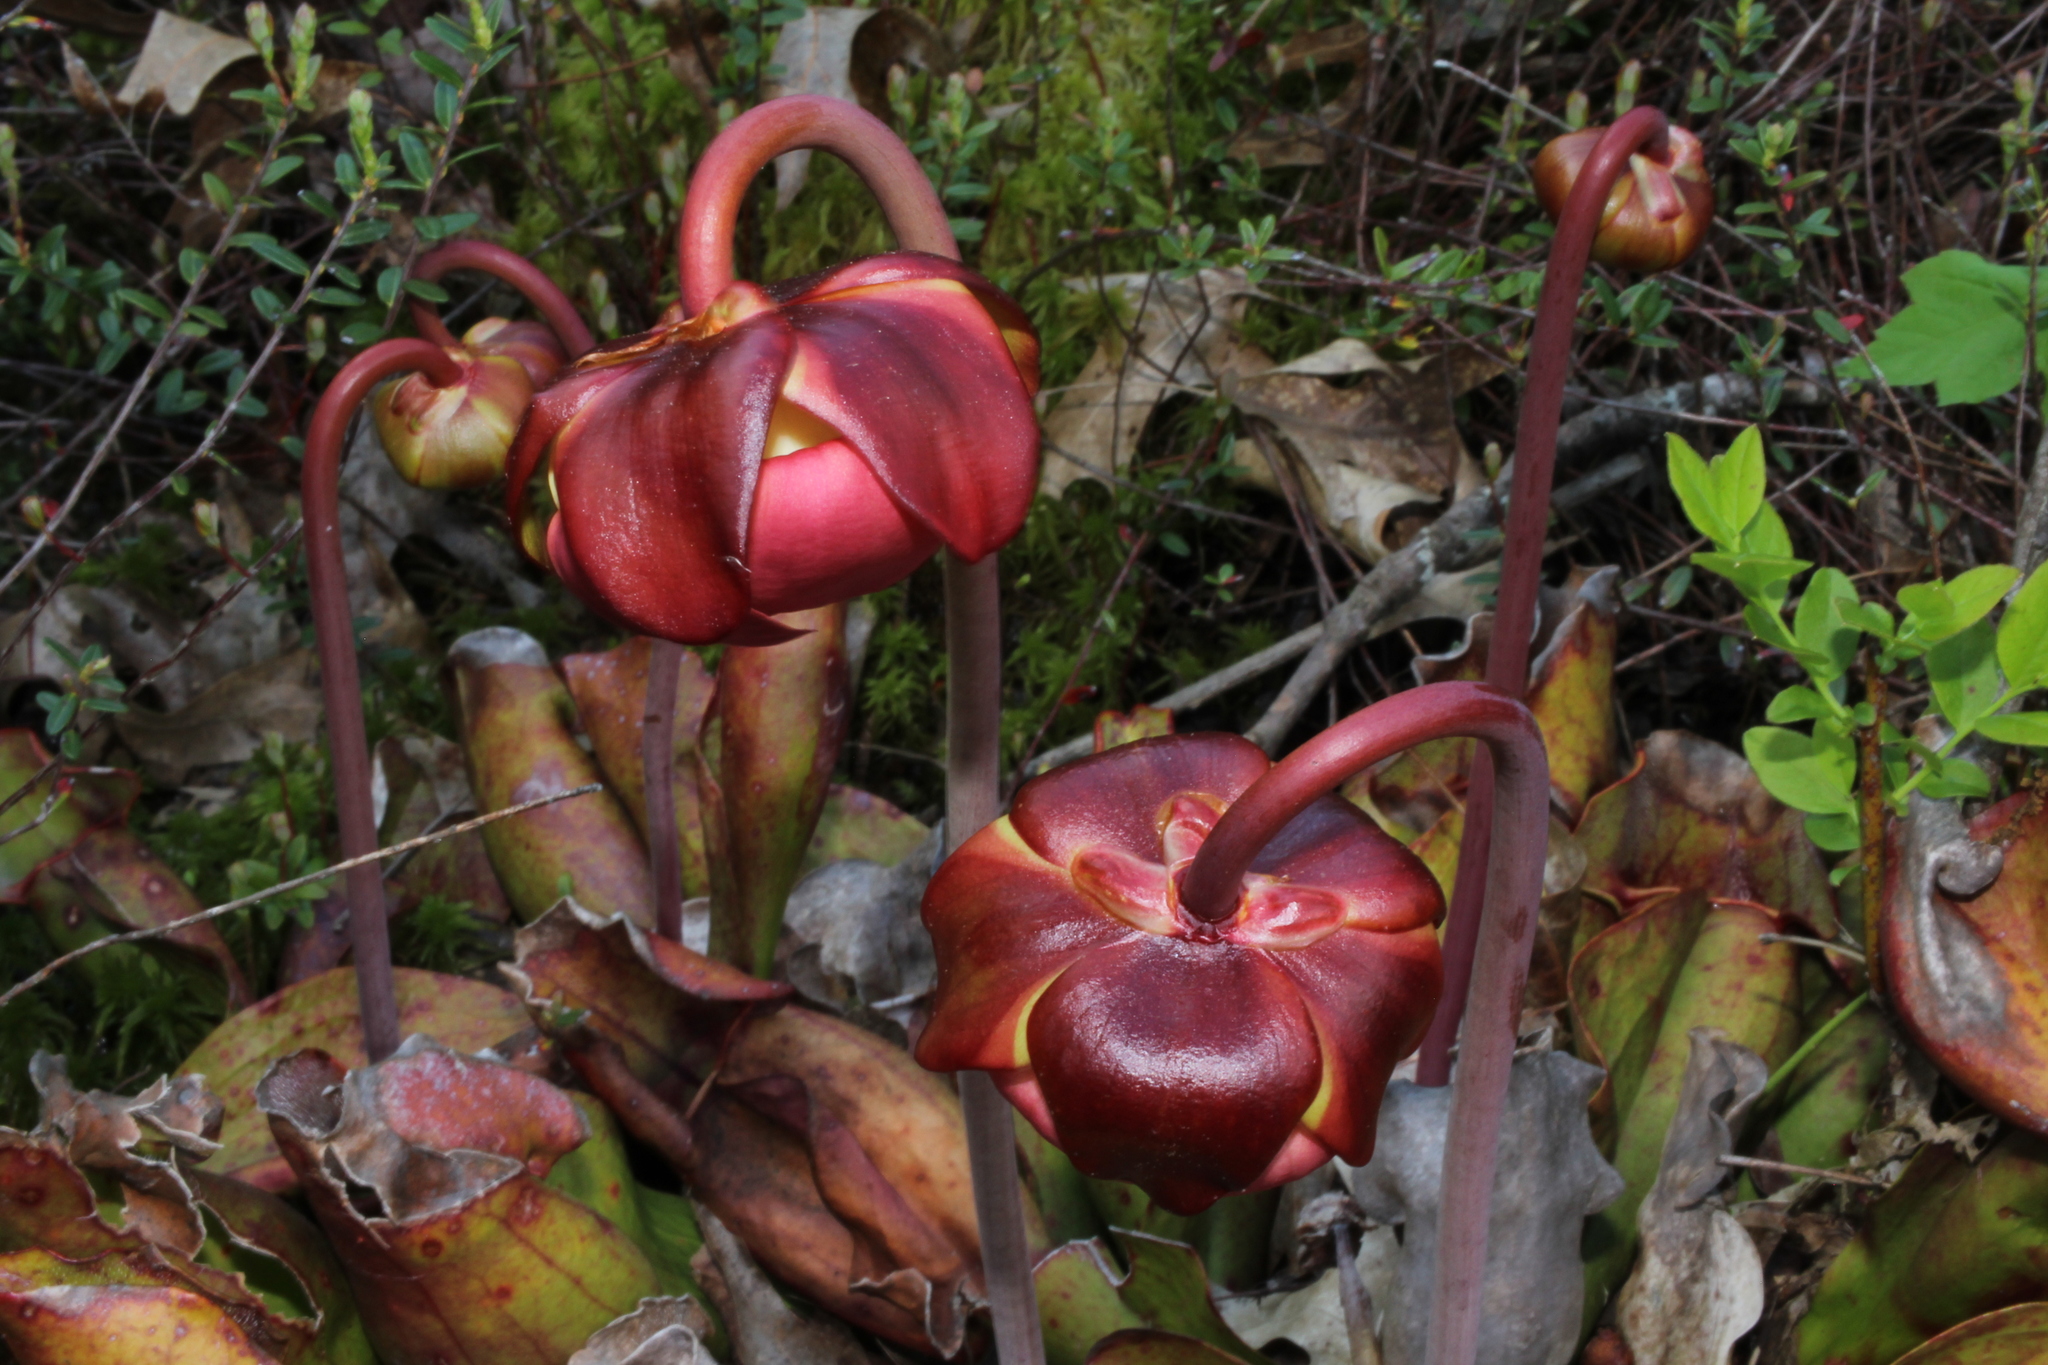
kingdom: Plantae
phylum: Tracheophyta
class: Magnoliopsida
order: Ericales
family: Sarraceniaceae
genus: Sarracenia
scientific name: Sarracenia purpurea
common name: Pitcherplant
